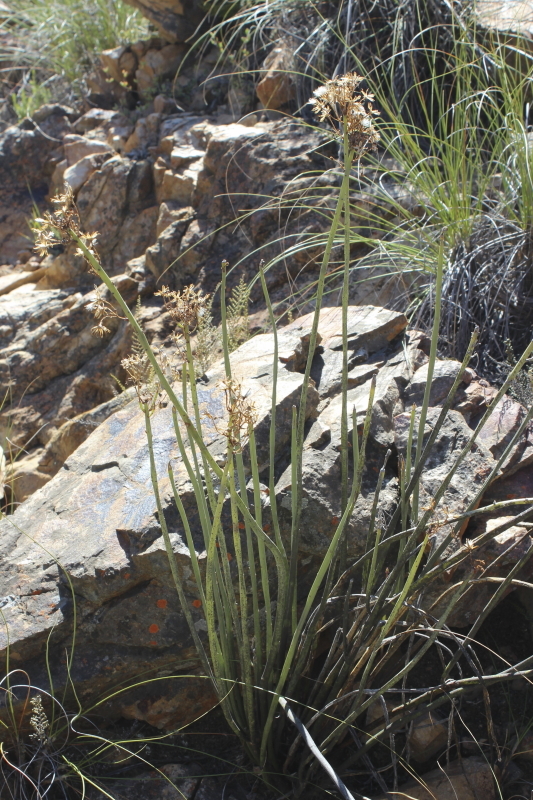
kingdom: Plantae
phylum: Tracheophyta
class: Magnoliopsida
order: Asterales
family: Asteraceae
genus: Senecio
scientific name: Senecio junceus
